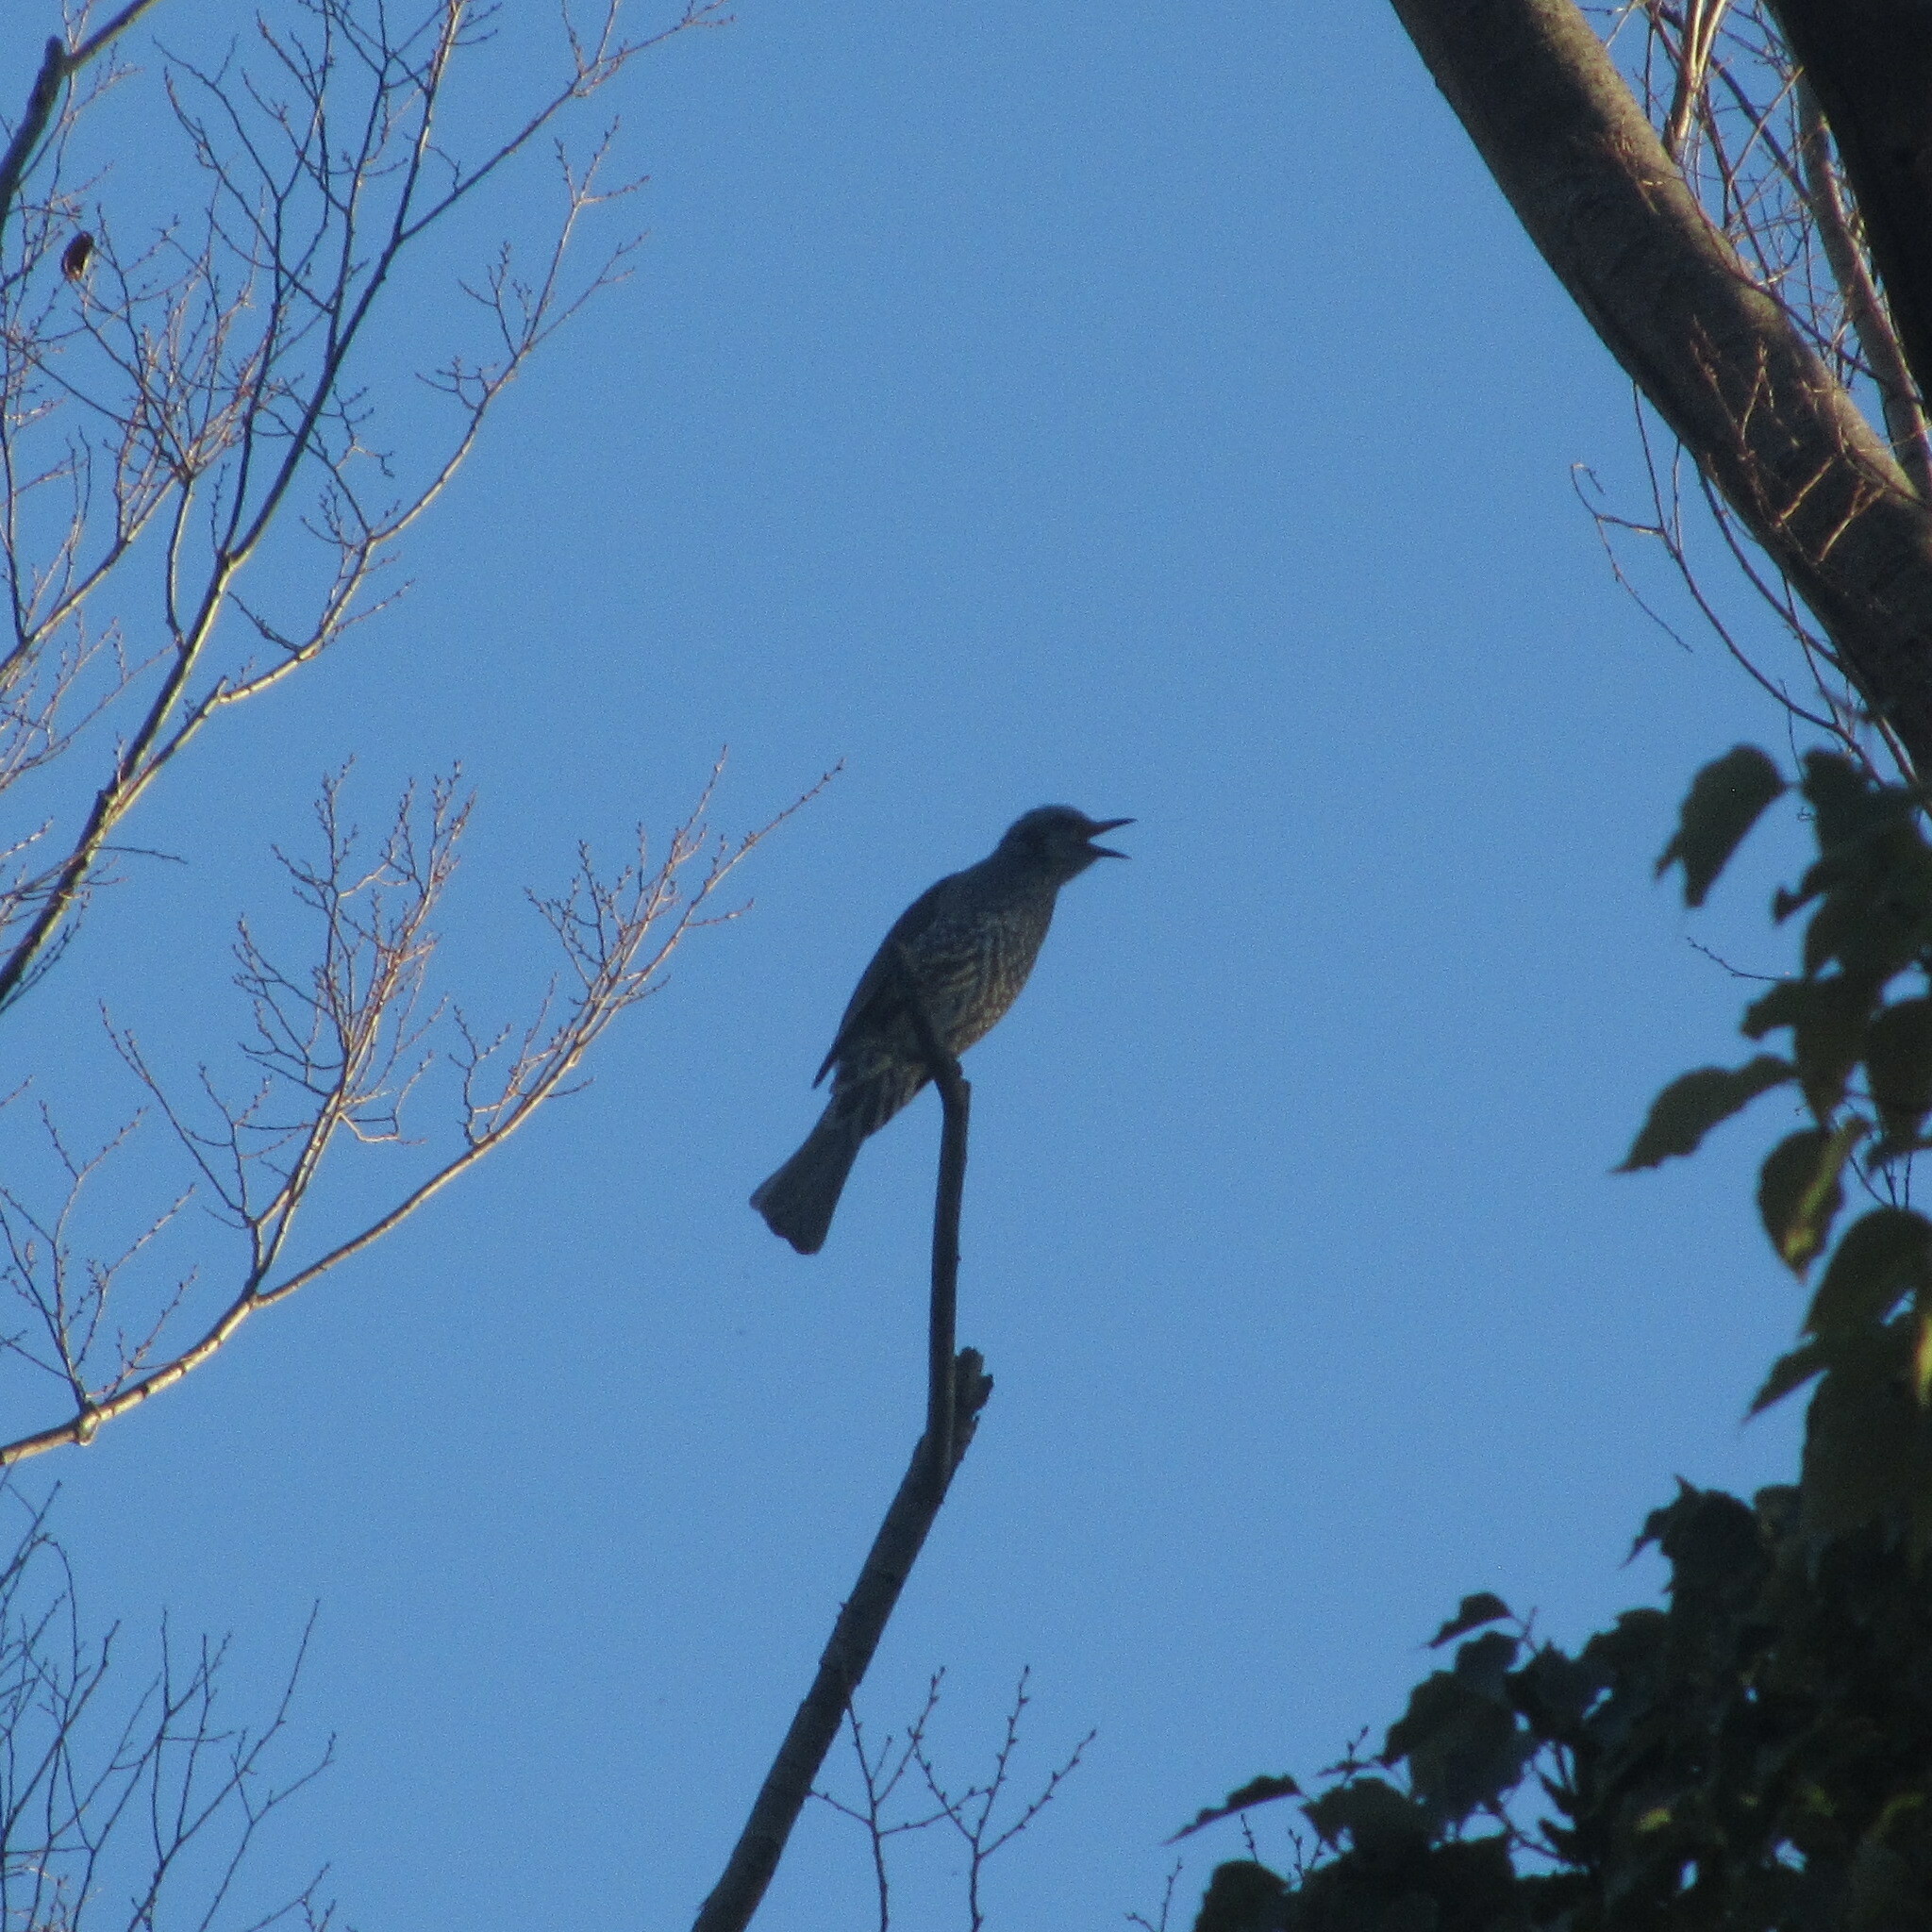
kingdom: Animalia
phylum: Chordata
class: Aves
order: Passeriformes
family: Pycnonotidae
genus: Hypsipetes
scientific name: Hypsipetes amaurotis
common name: Brown-eared bulbul
